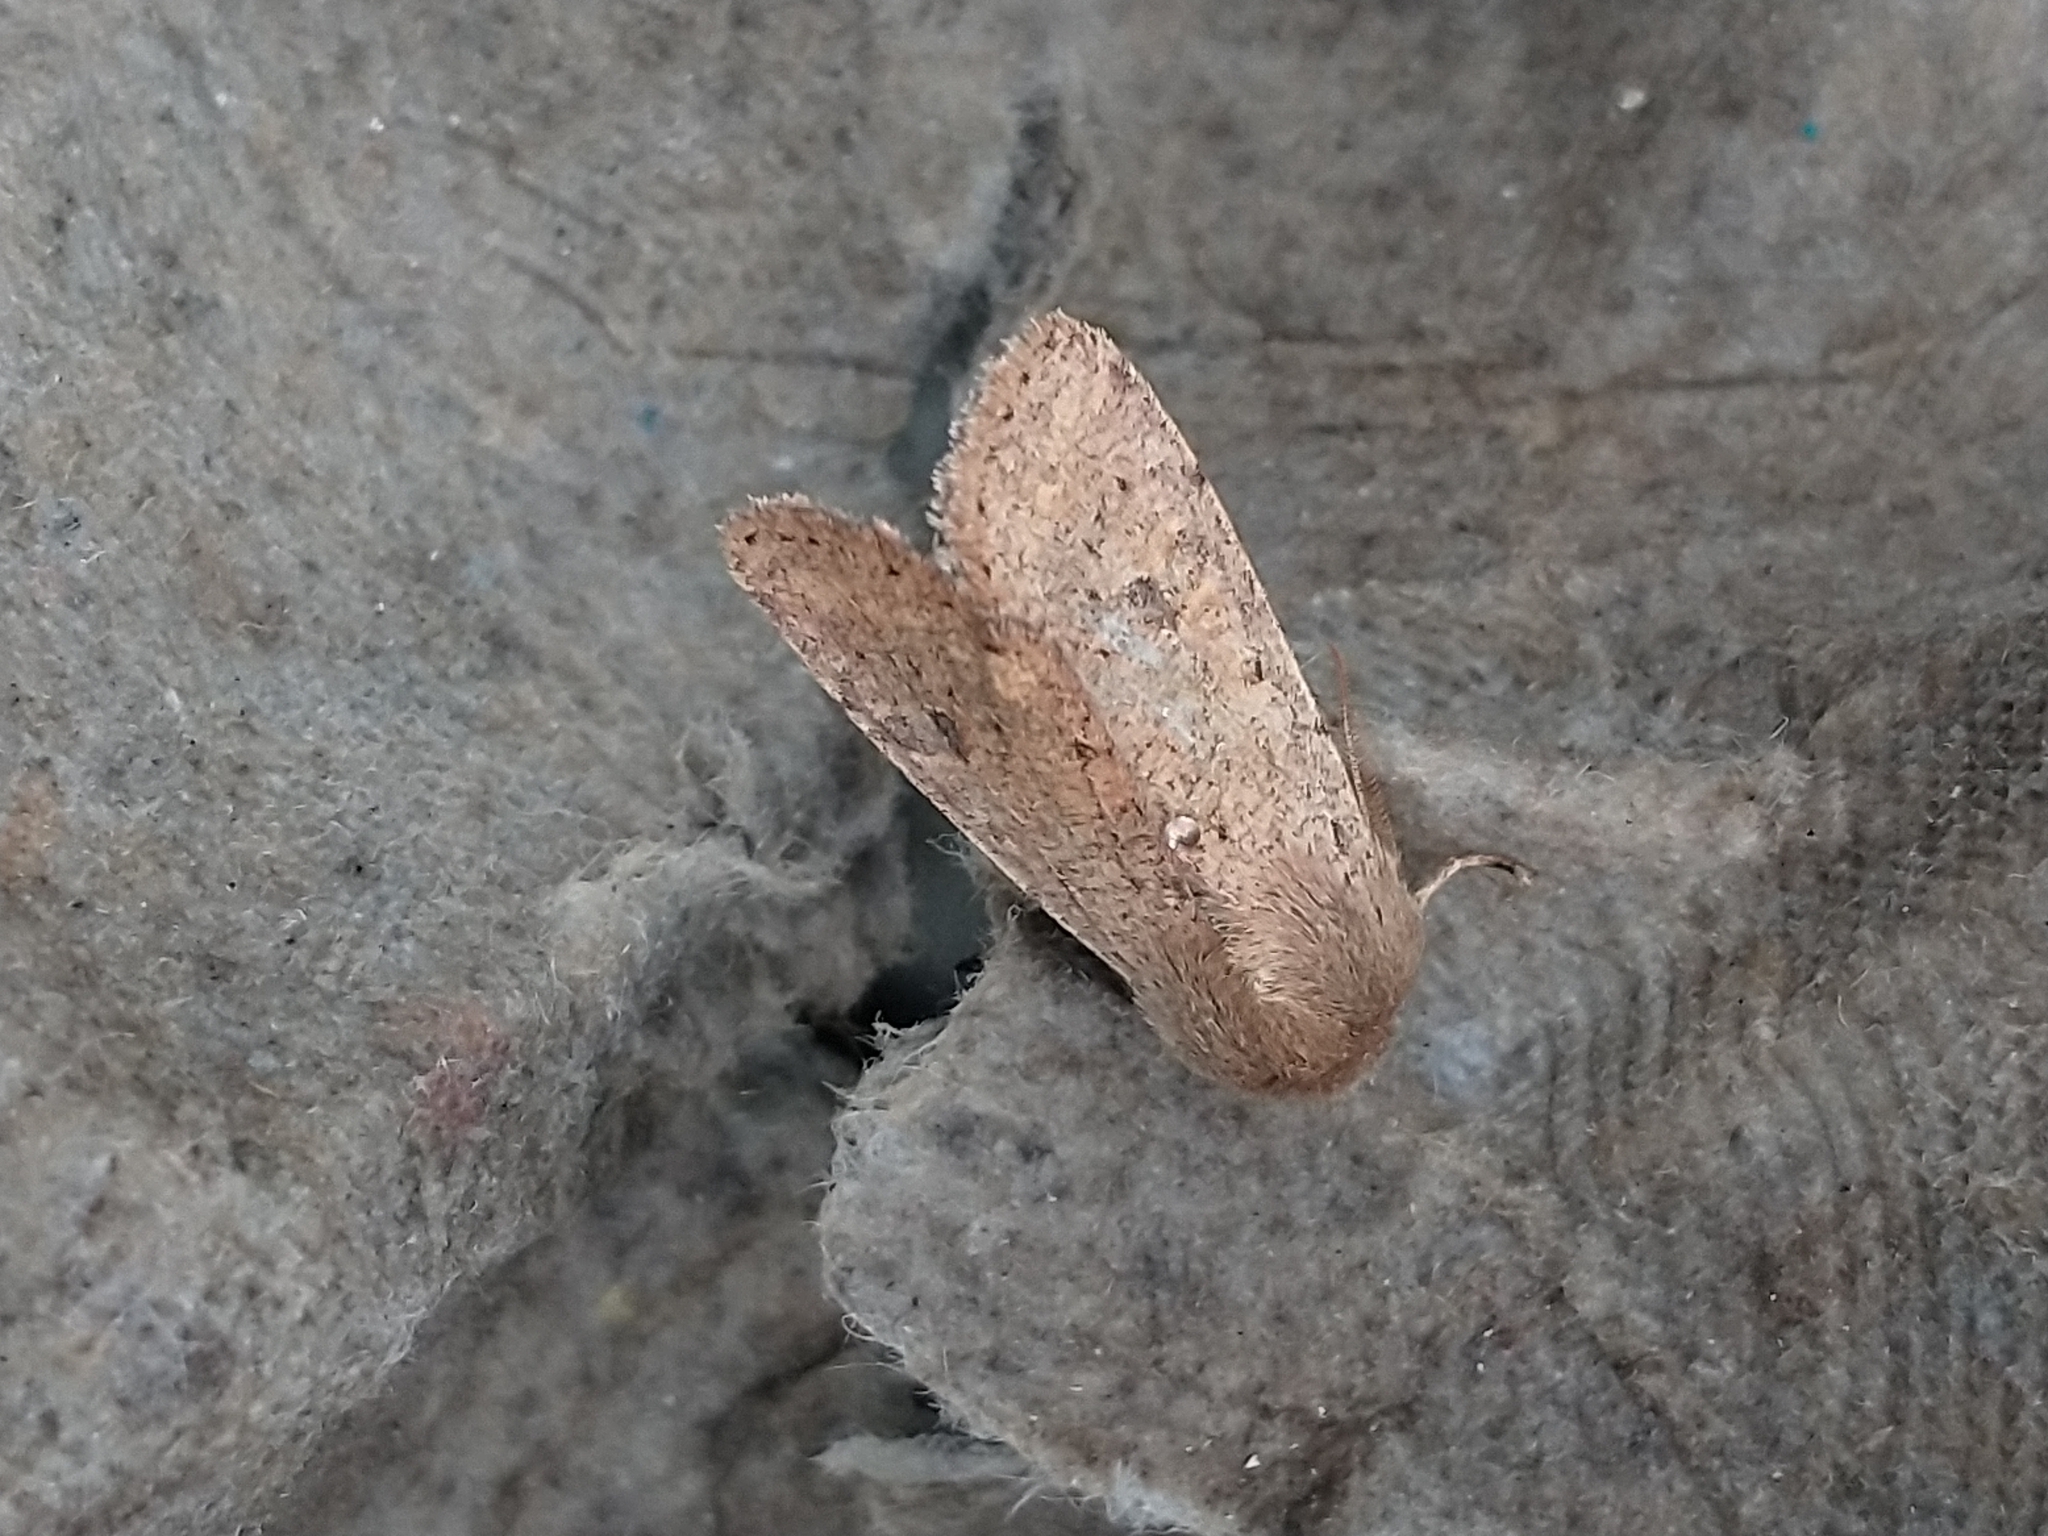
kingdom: Animalia
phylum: Arthropoda
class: Insecta
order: Lepidoptera
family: Noctuidae
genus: Orthosia
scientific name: Orthosia cruda
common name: Small quaker
